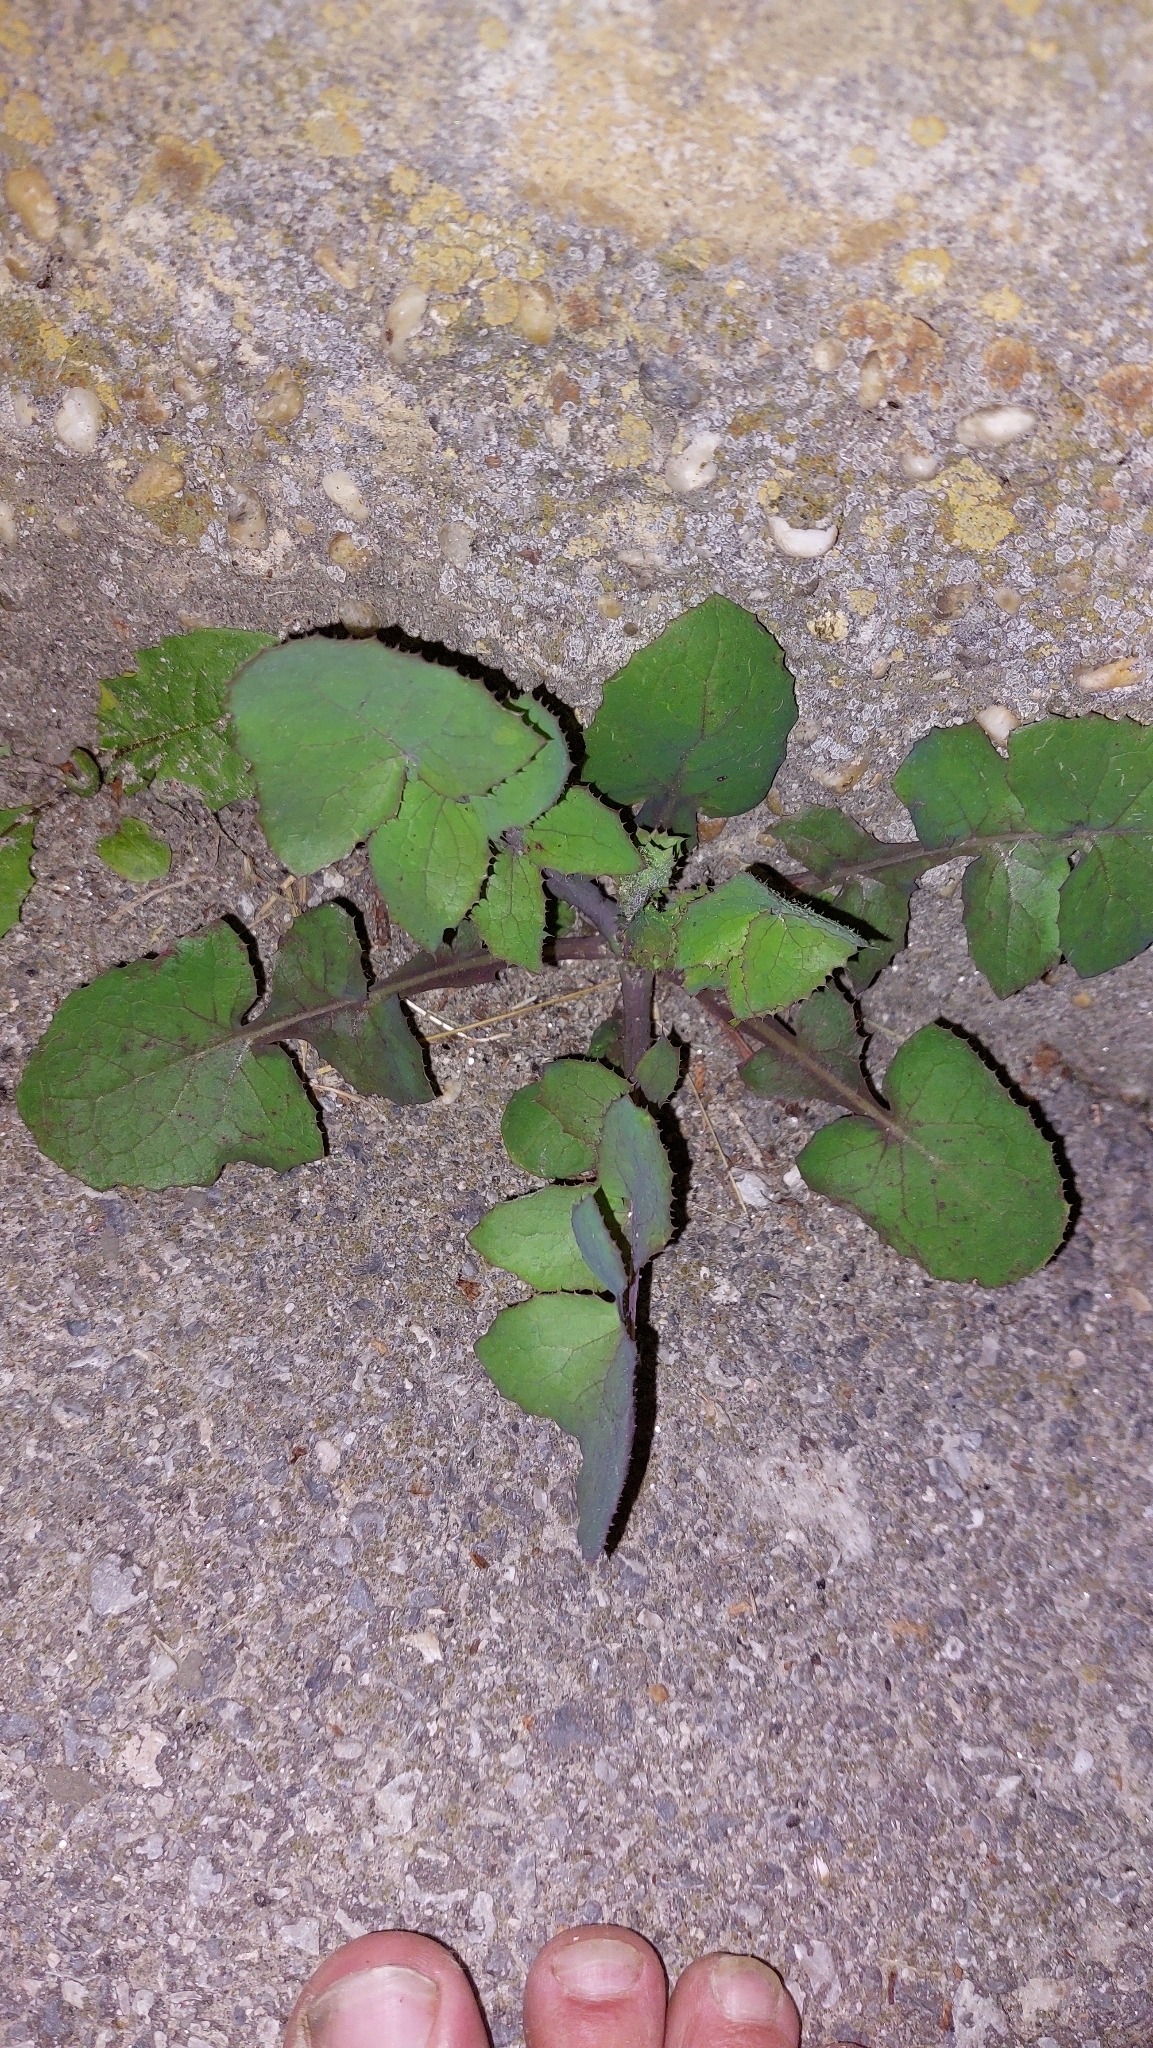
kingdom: Plantae
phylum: Tracheophyta
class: Magnoliopsida
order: Asterales
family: Asteraceae
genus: Sonchus
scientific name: Sonchus oleraceus
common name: Common sowthistle
